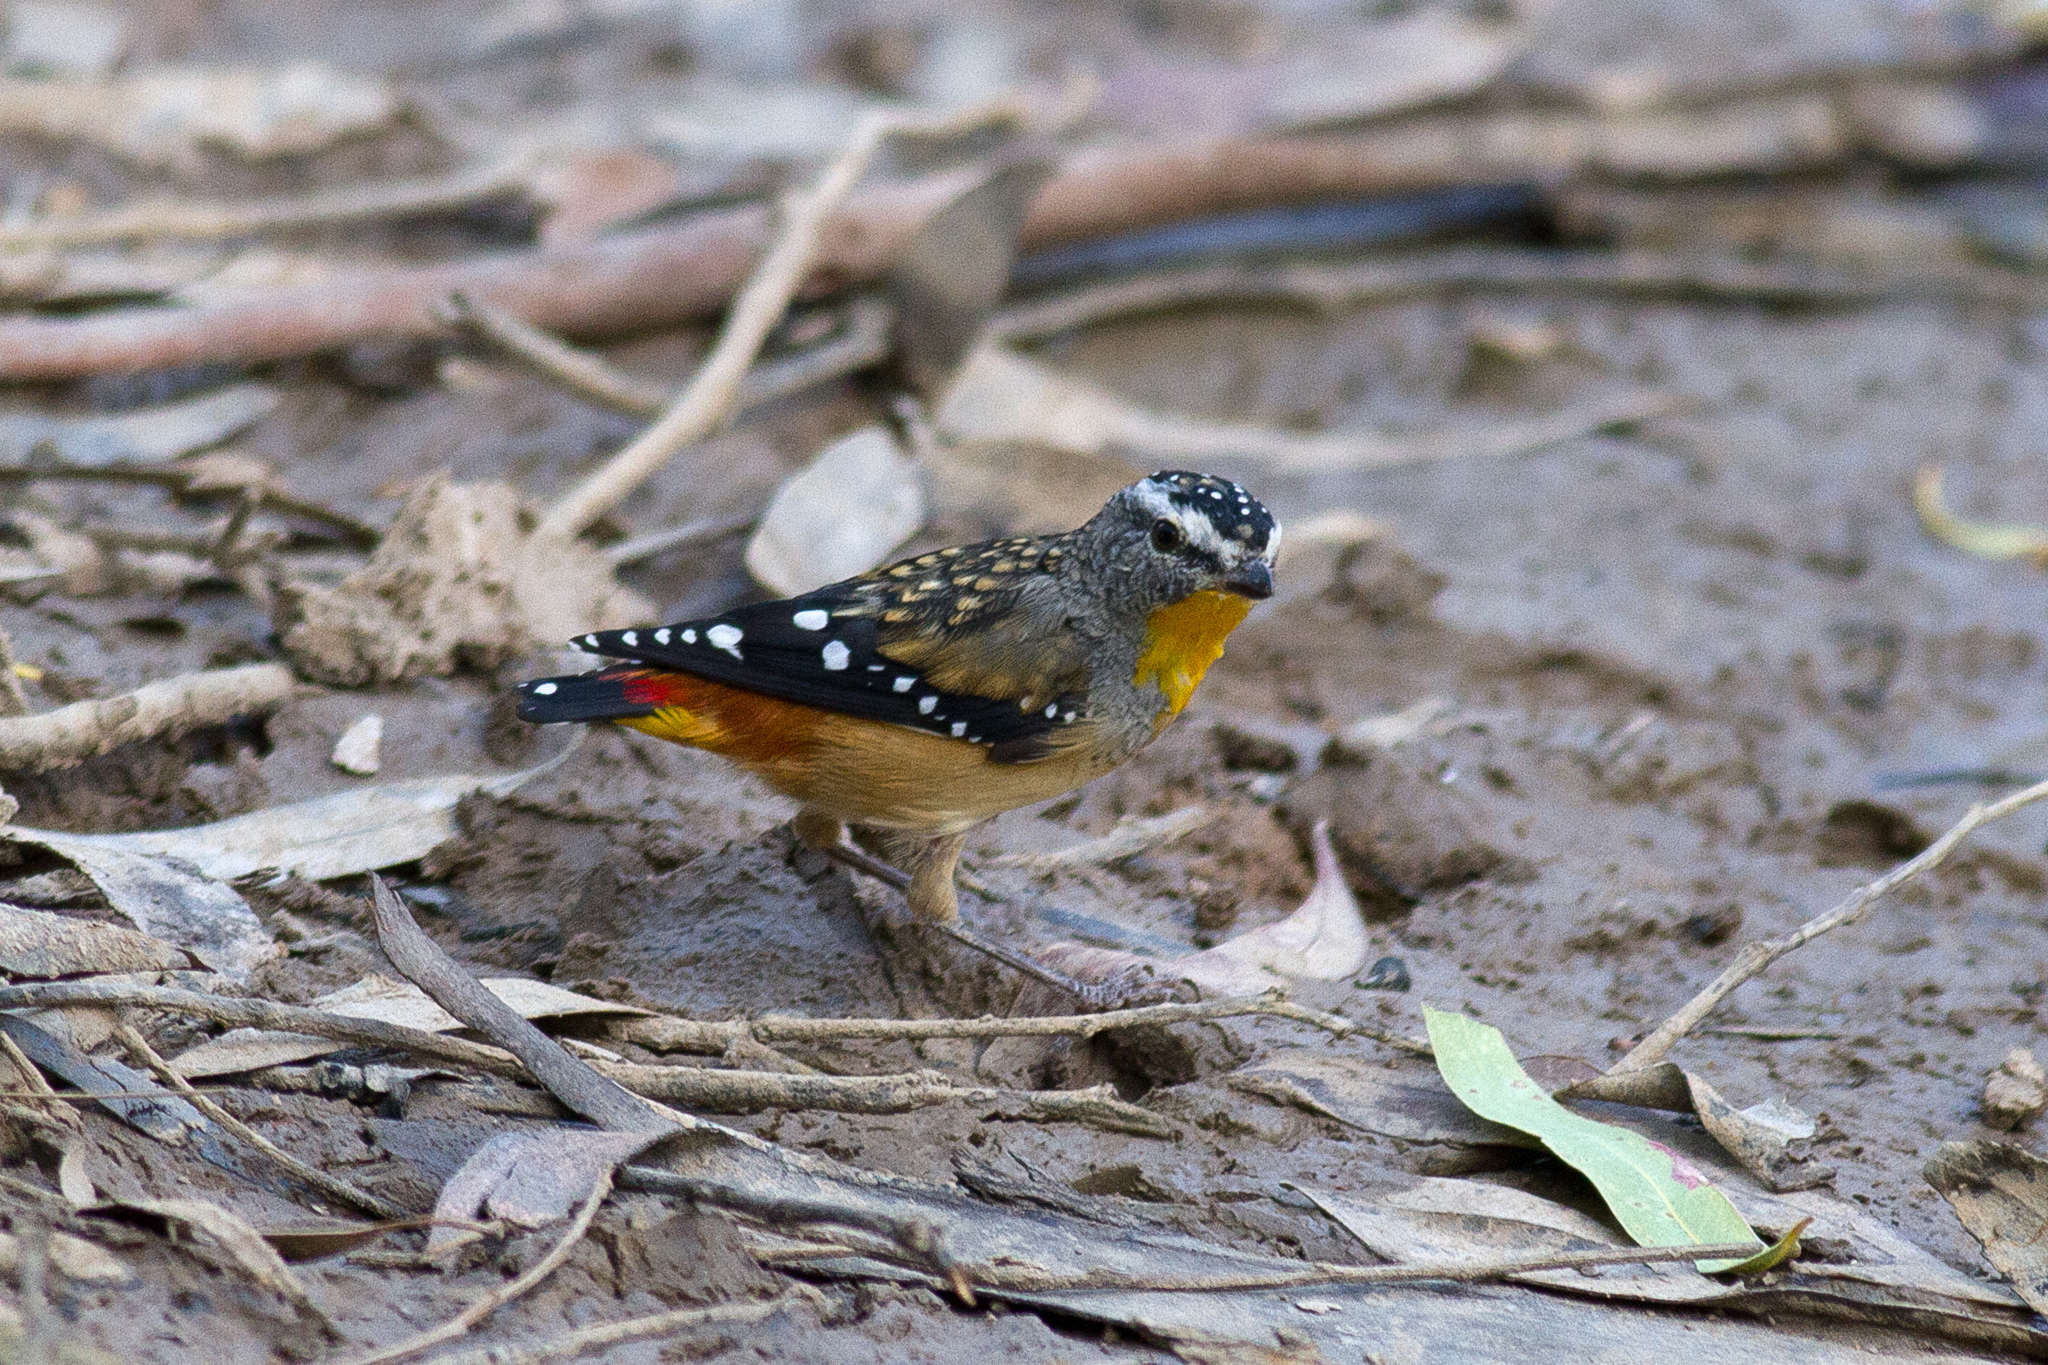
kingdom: Animalia
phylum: Chordata
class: Aves
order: Passeriformes
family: Pardalotidae
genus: Pardalotus
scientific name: Pardalotus punctatus
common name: Spotted pardalote
